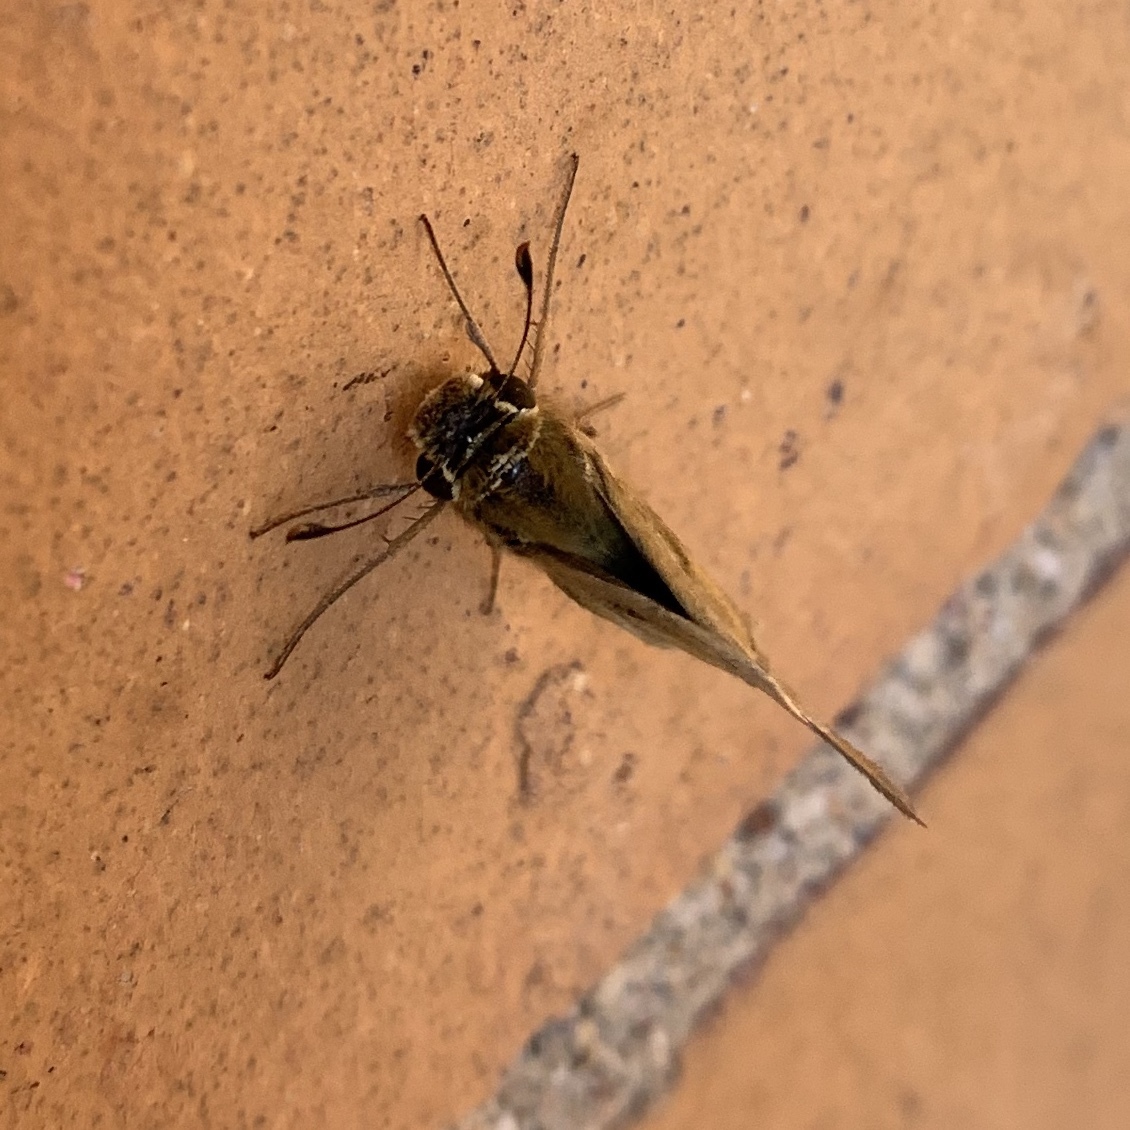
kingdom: Animalia
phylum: Arthropoda
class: Insecta
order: Lepidoptera
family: Hesperiidae
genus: Hylephila
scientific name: Hylephila phyleus
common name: Fiery skipper
